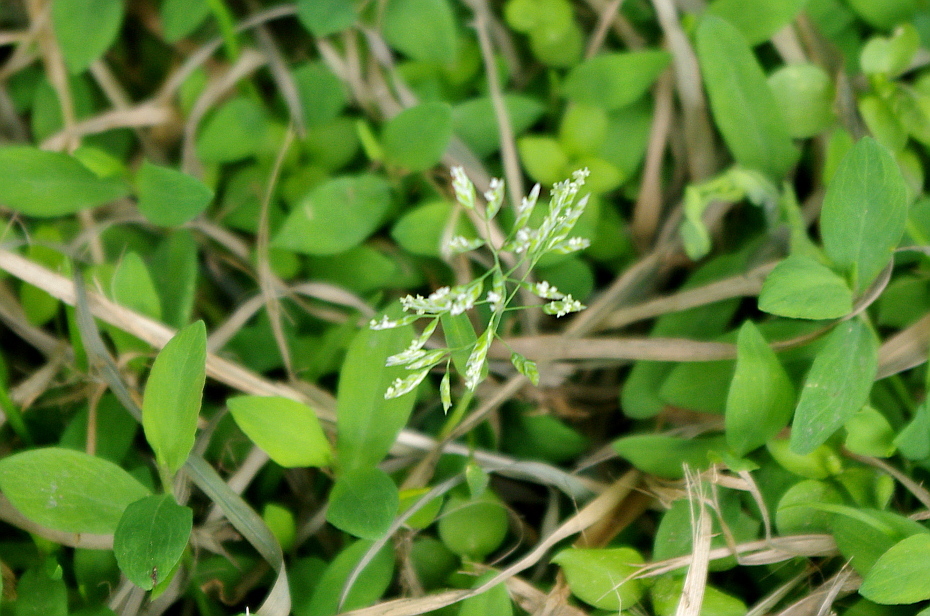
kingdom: Plantae
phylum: Tracheophyta
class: Liliopsida
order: Poales
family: Poaceae
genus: Poa
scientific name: Poa annua
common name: Annual bluegrass
